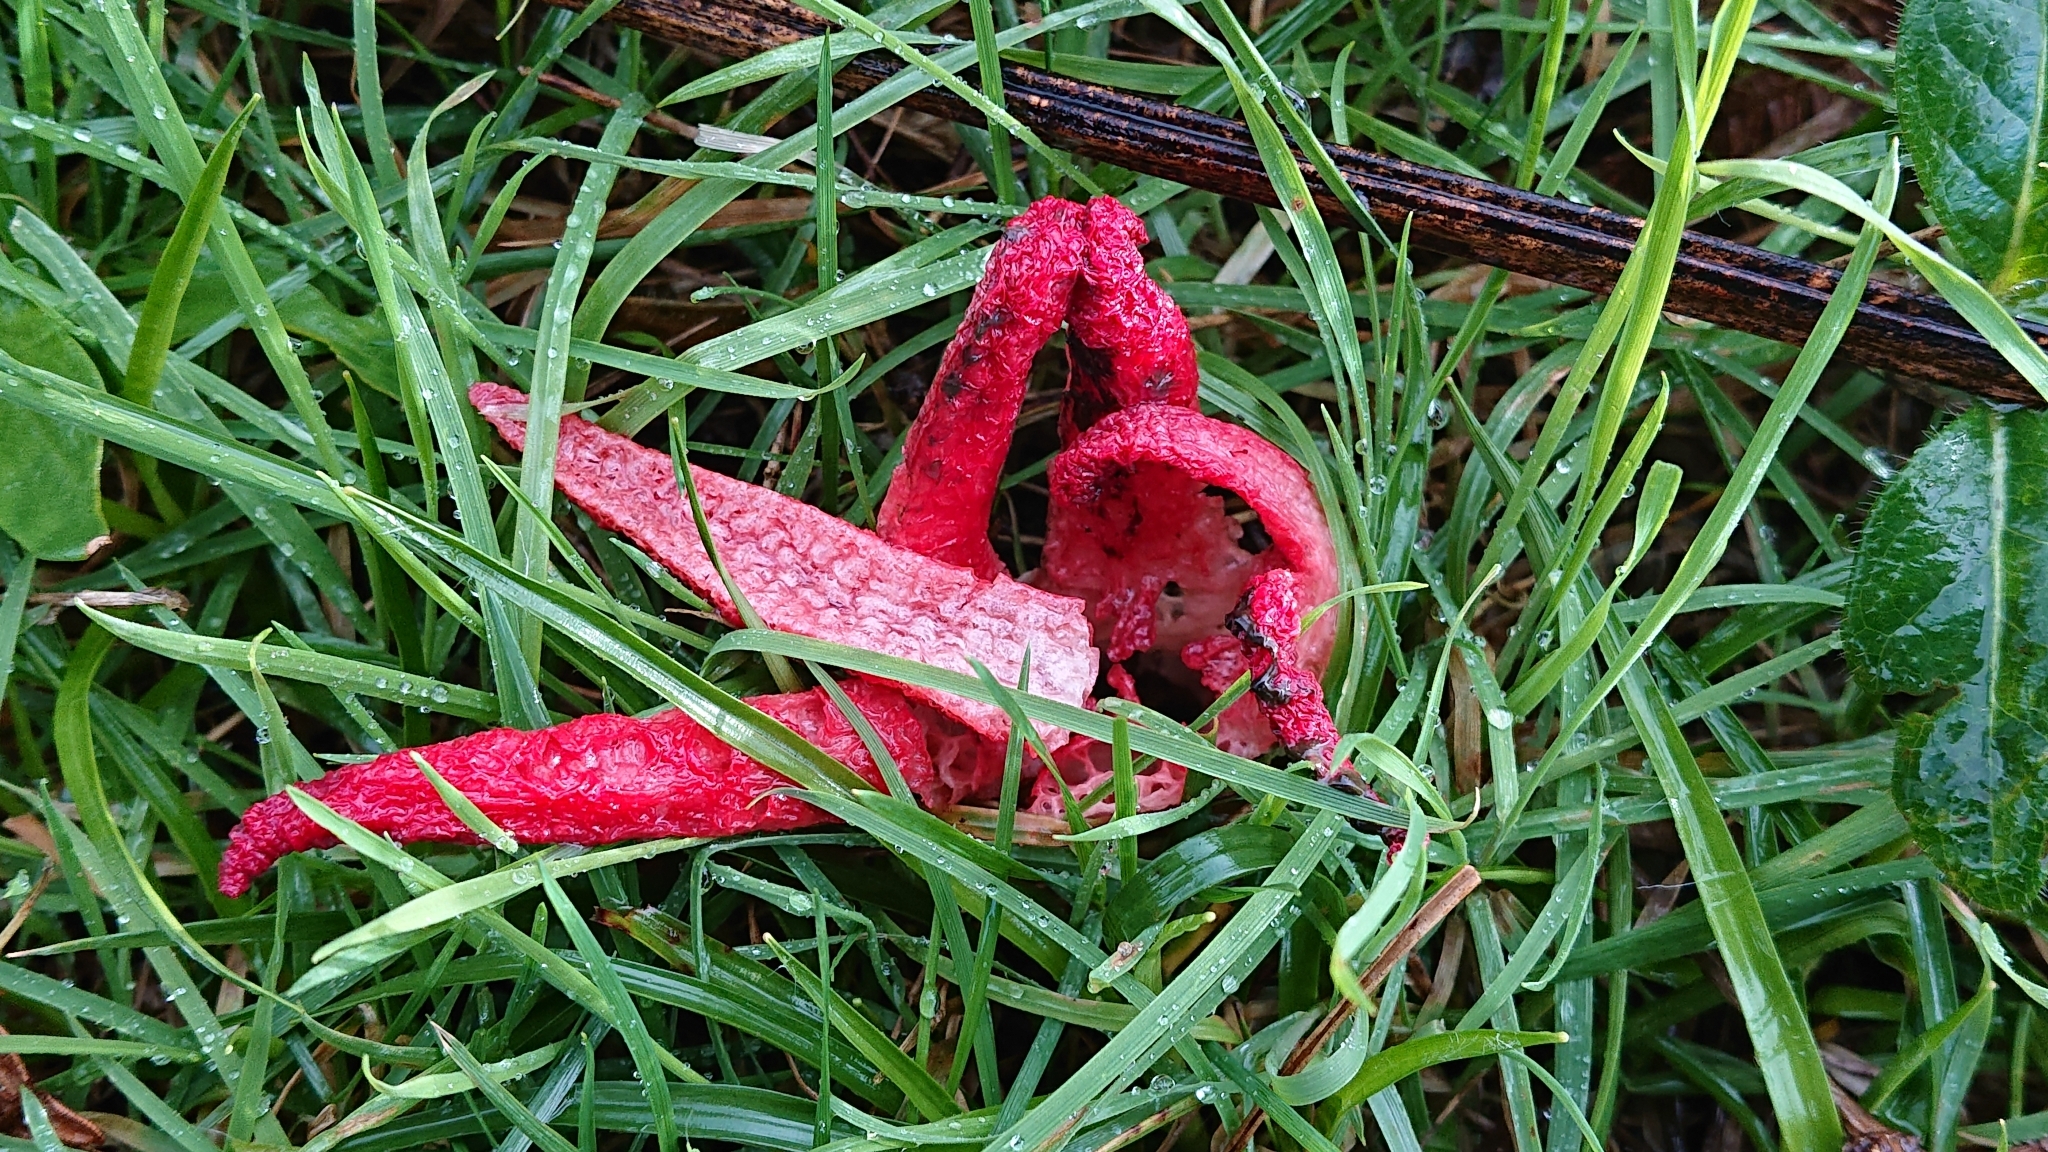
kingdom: Fungi
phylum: Basidiomycota
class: Agaricomycetes
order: Phallales
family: Phallaceae
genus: Clathrus
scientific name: Clathrus archeri
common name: Devil's fingers
